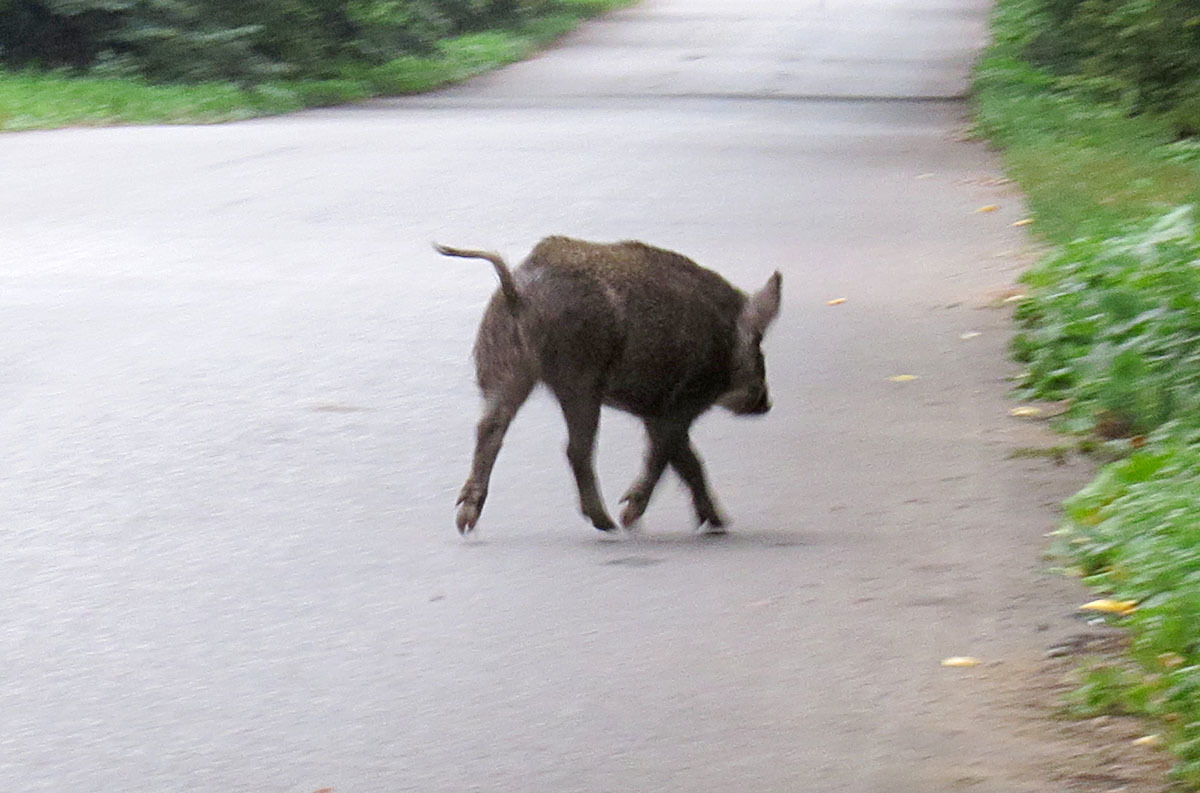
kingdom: Animalia
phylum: Chordata
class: Mammalia
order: Artiodactyla
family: Suidae
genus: Sus
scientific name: Sus scrofa
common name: Wild boar
